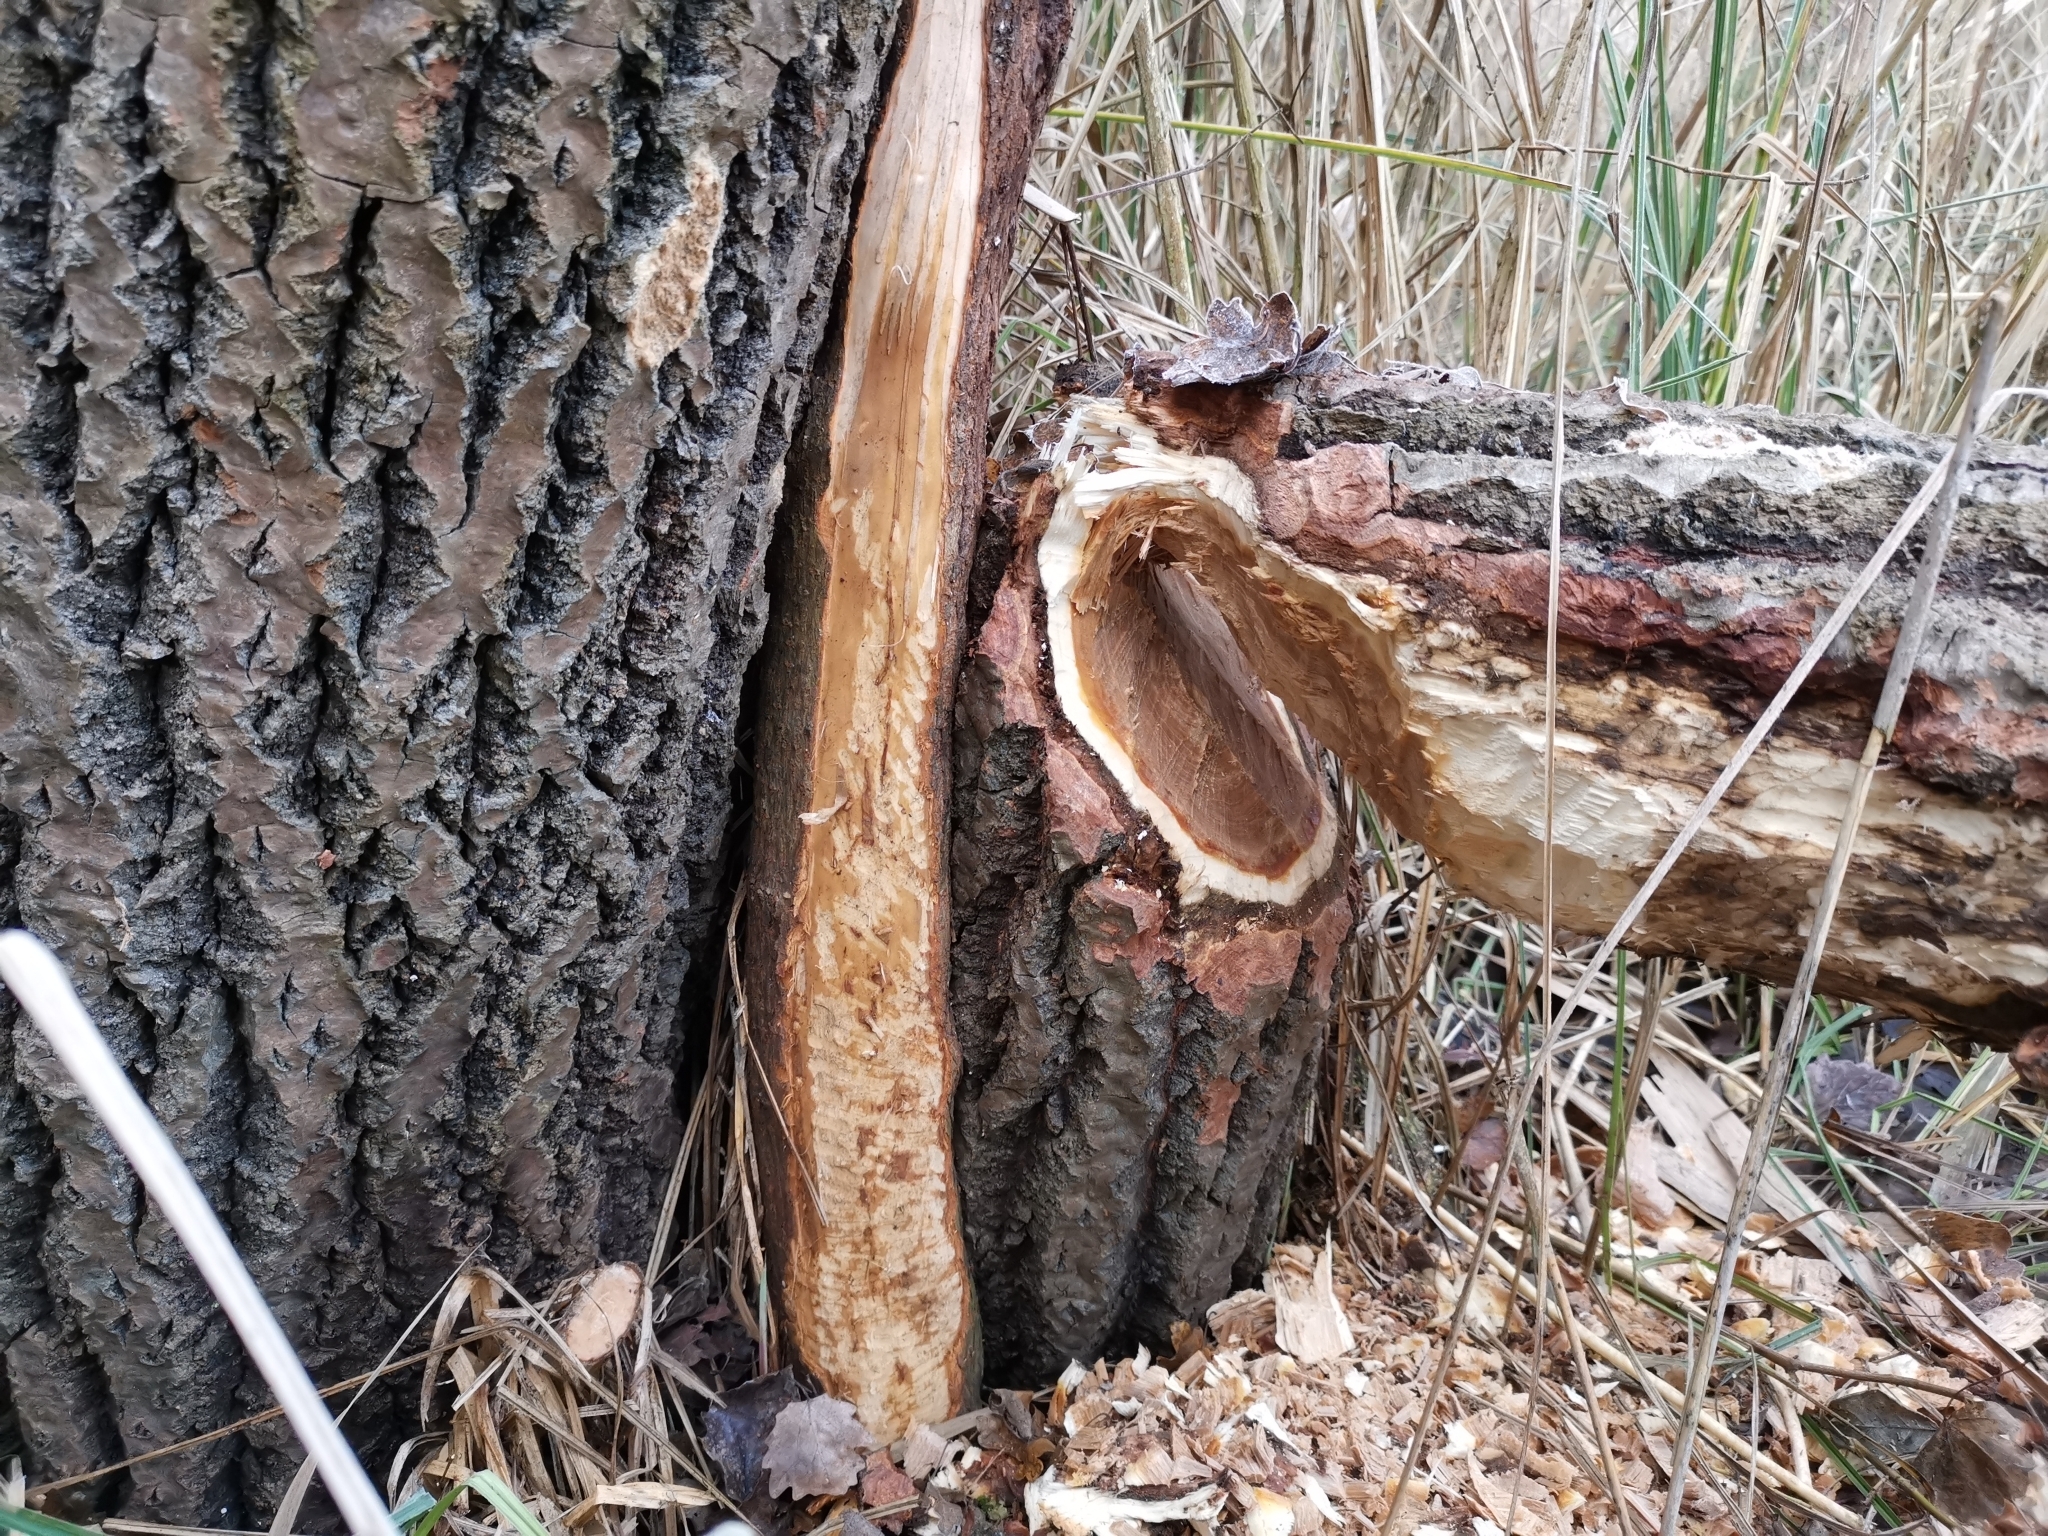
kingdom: Animalia
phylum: Chordata
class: Mammalia
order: Rodentia
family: Castoridae
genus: Castor
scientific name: Castor fiber
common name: Eurasian beaver
